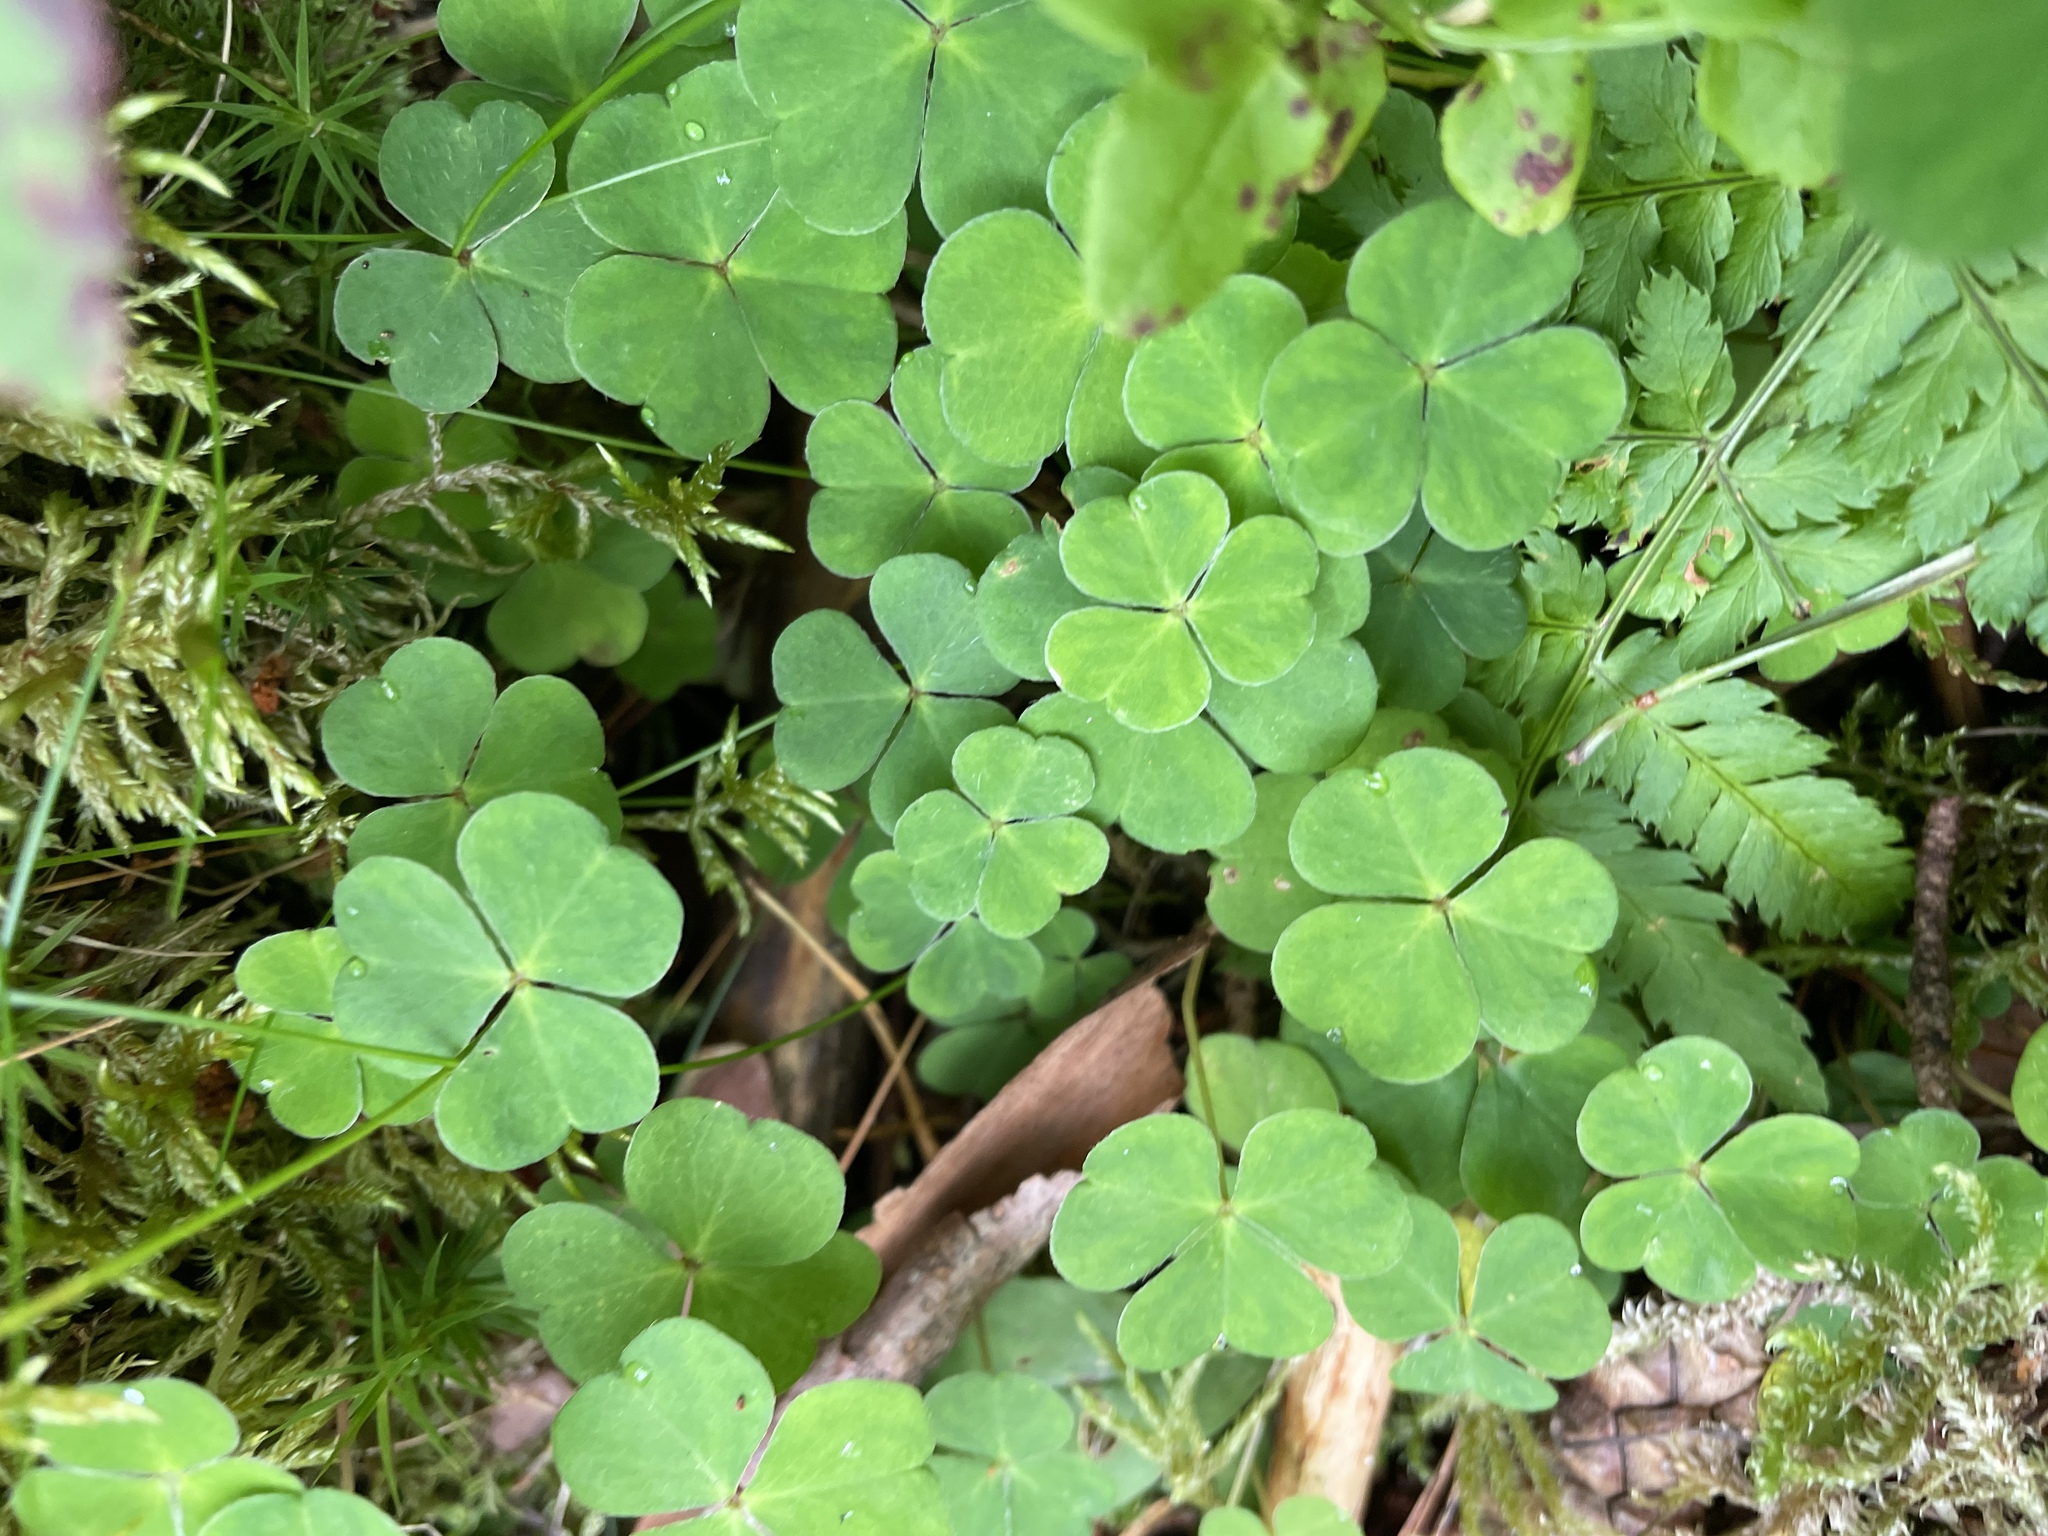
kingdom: Plantae
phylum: Tracheophyta
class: Magnoliopsida
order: Oxalidales
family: Oxalidaceae
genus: Oxalis
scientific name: Oxalis acetosella
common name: Wood-sorrel
